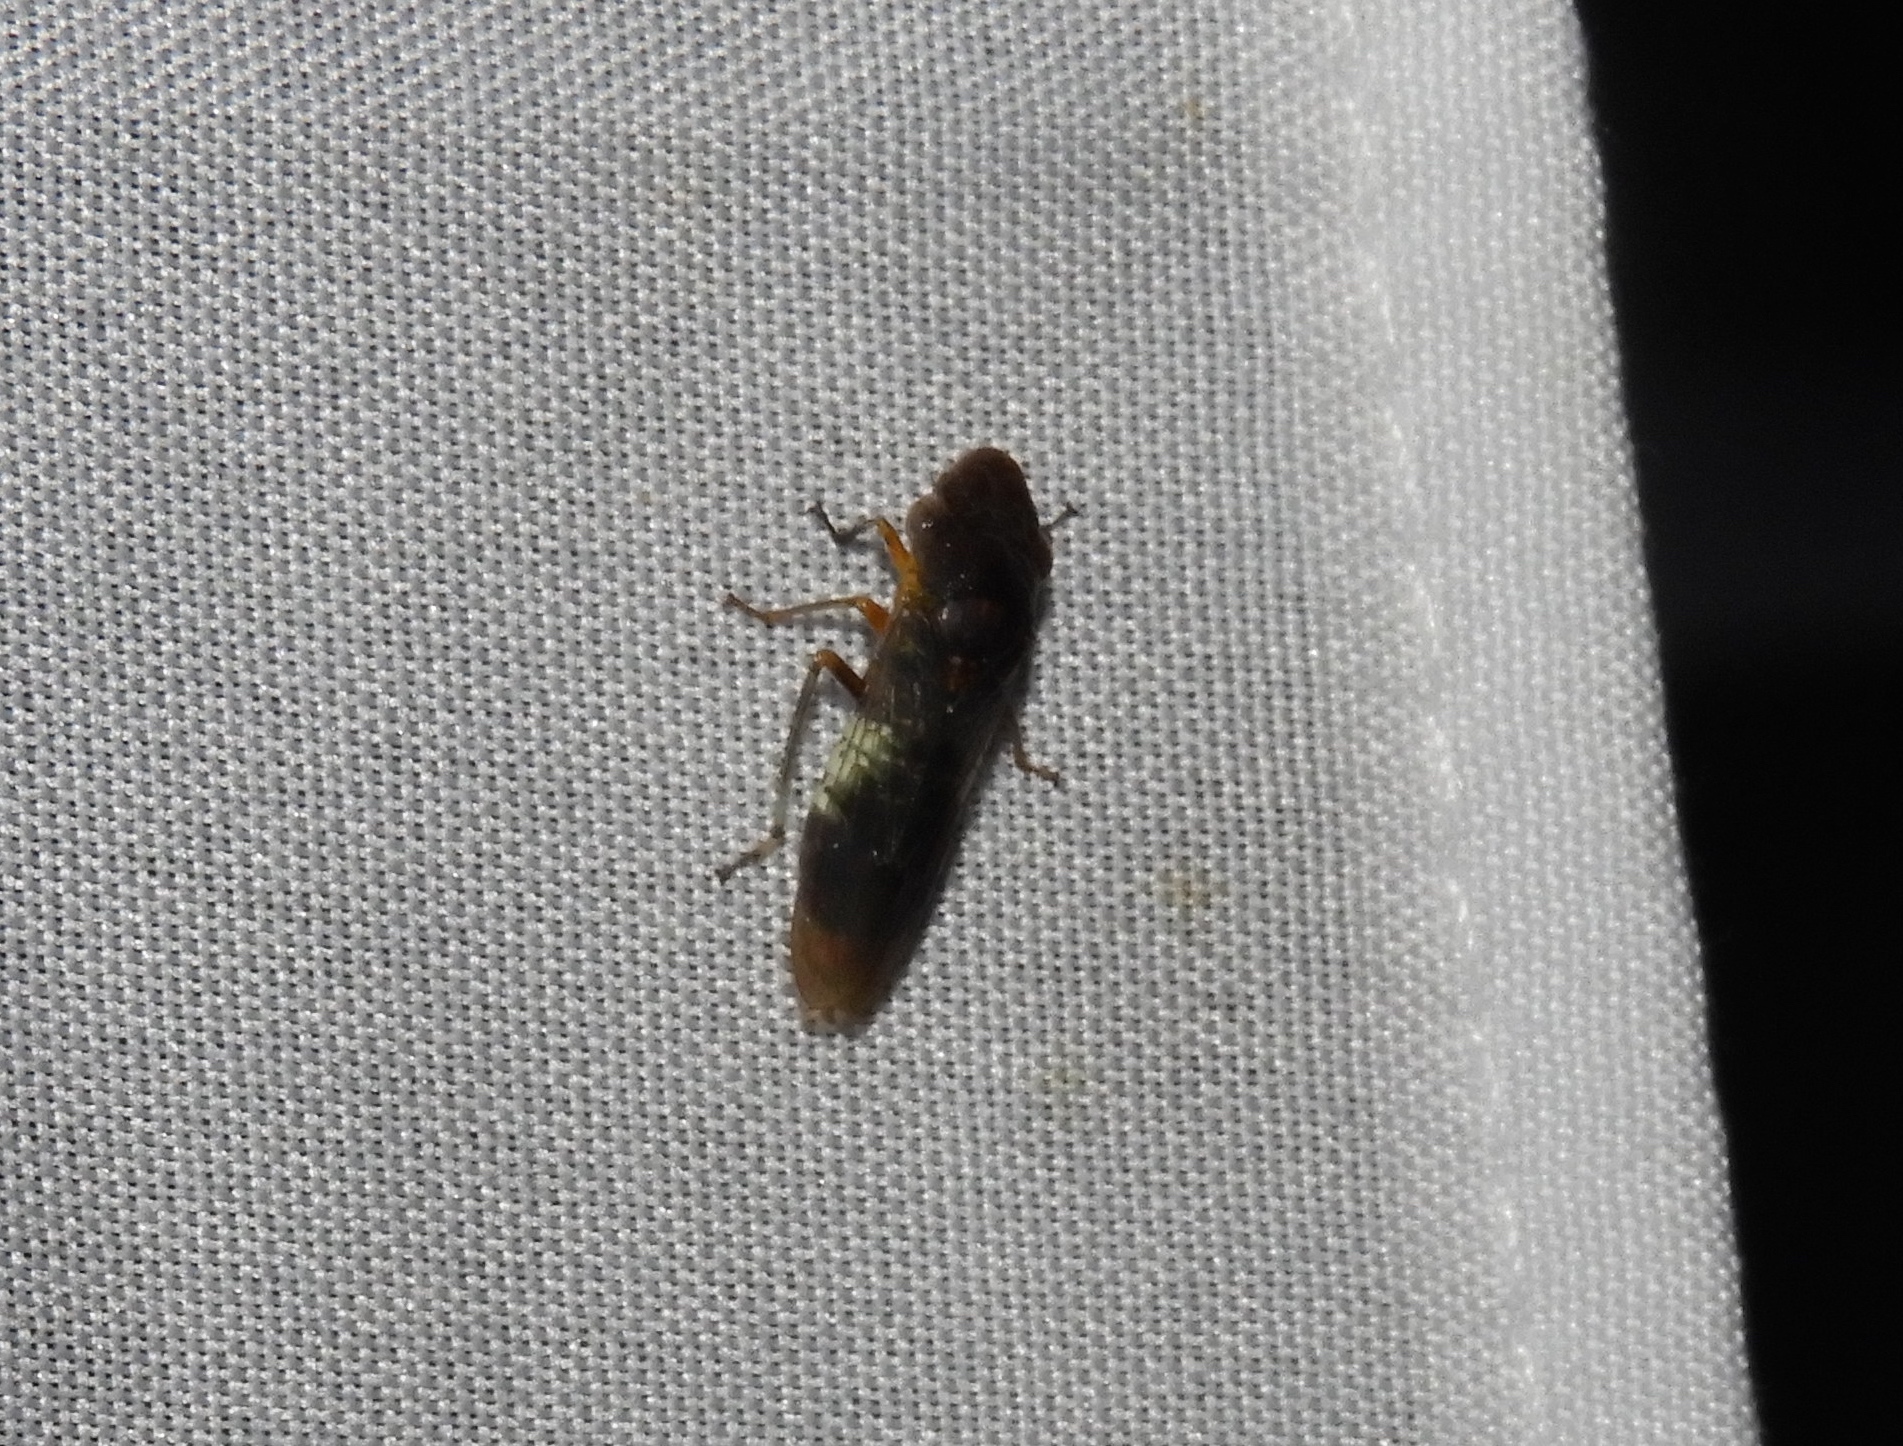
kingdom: Animalia
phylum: Arthropoda
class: Insecta
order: Hemiptera
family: Cicadellidae
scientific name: Cicadellidae
